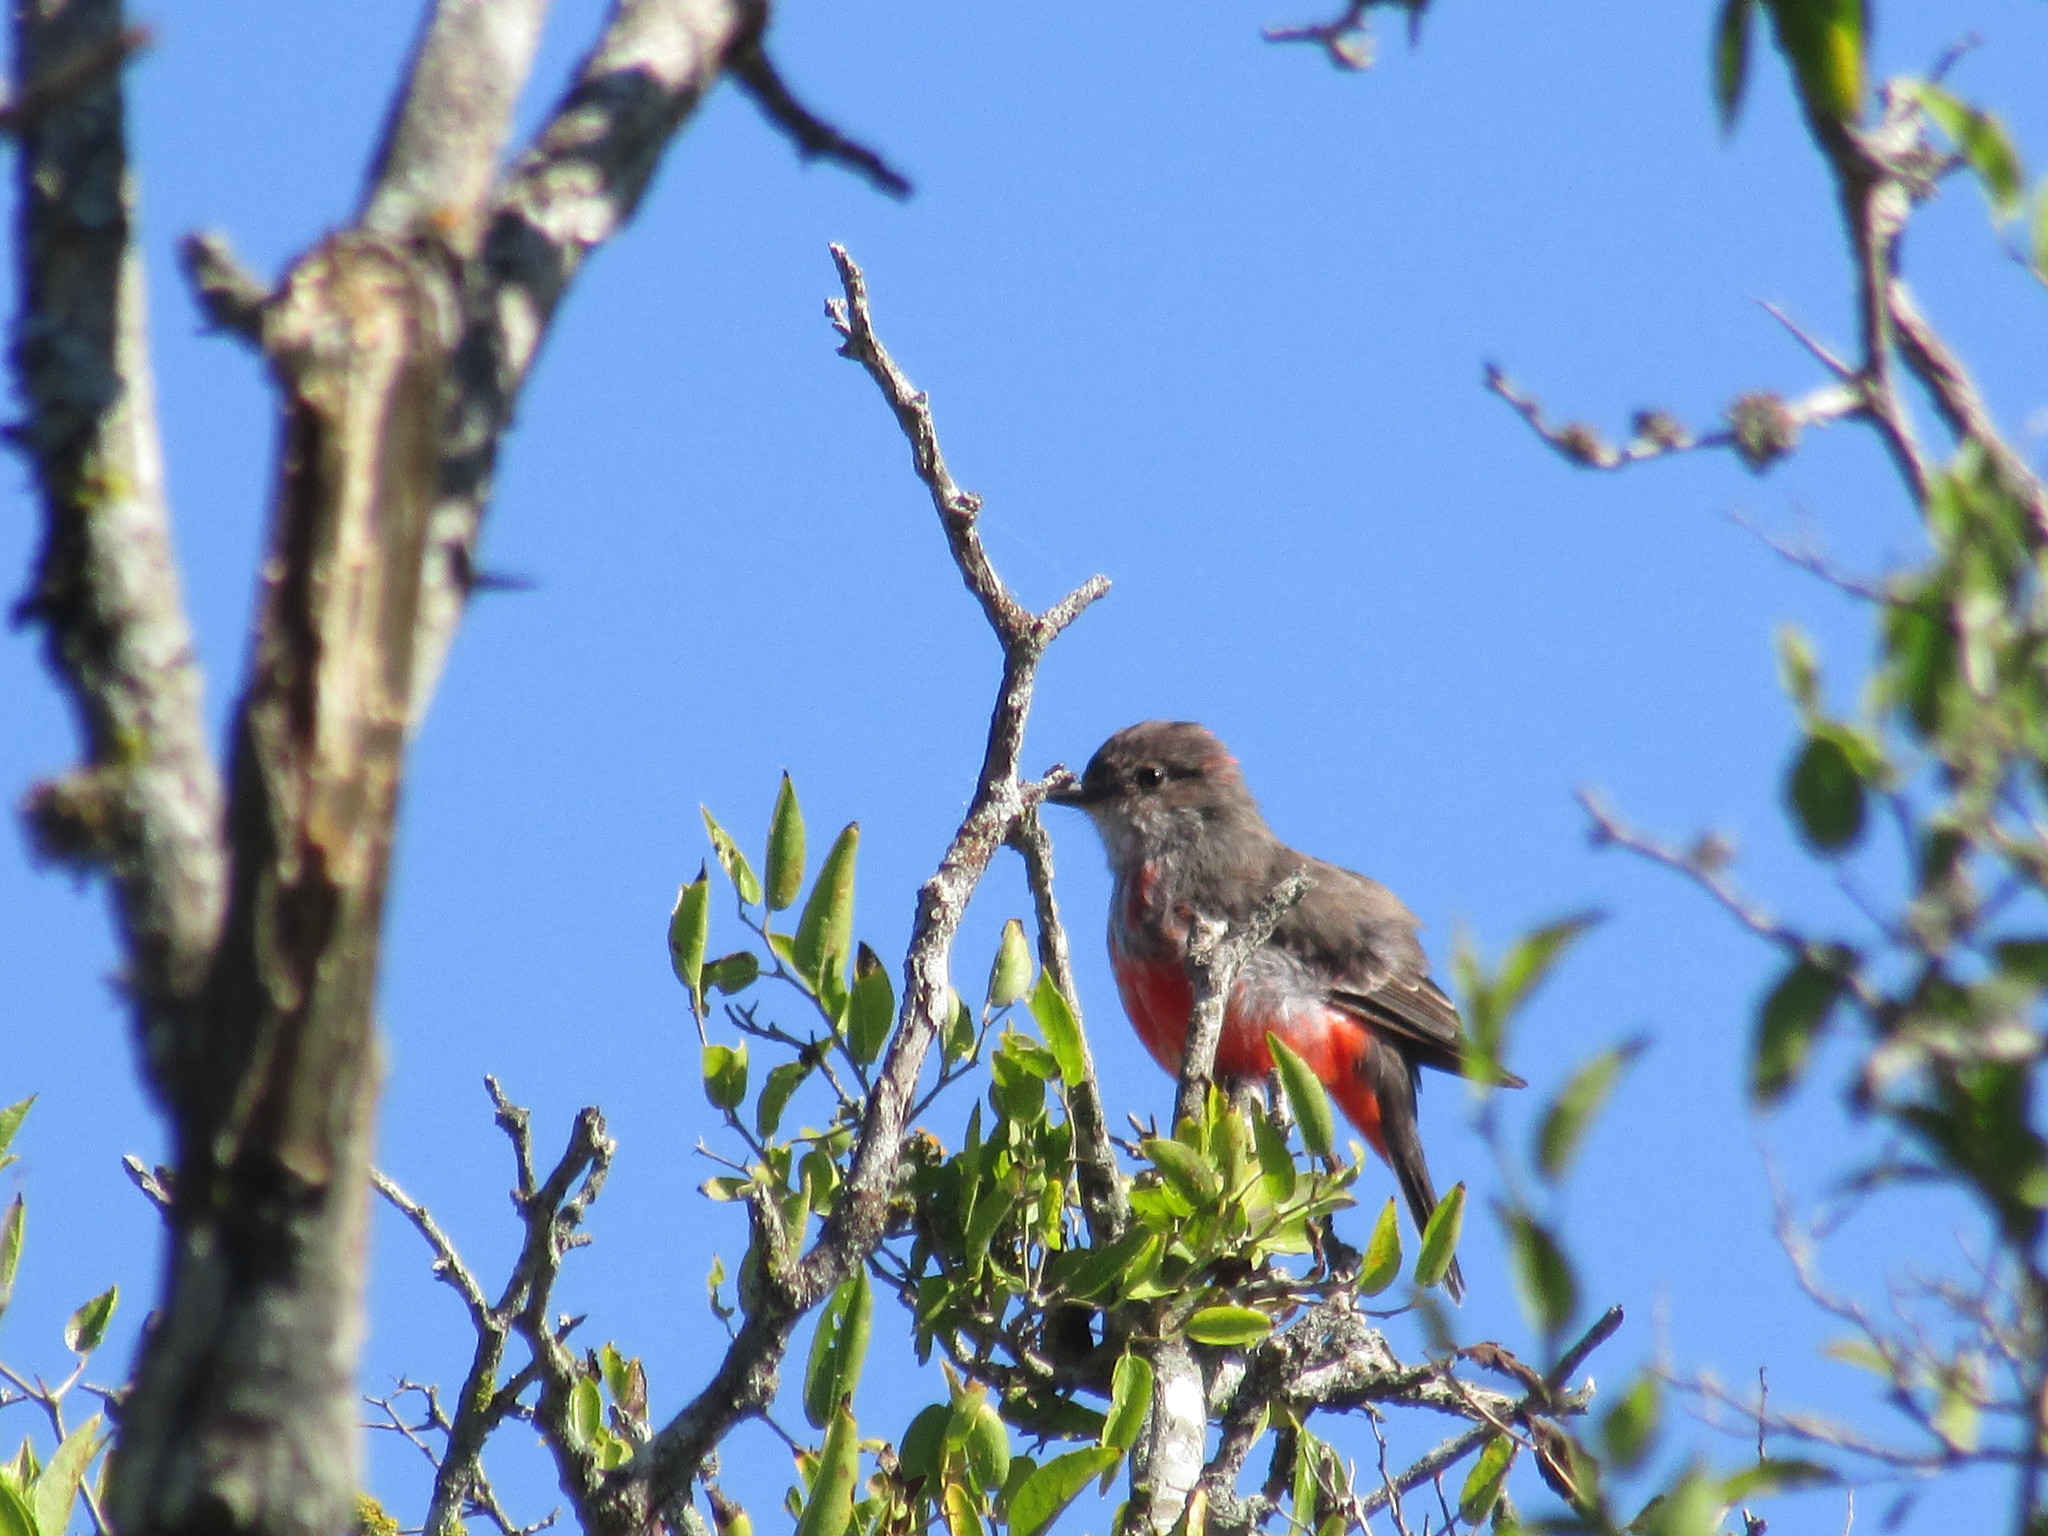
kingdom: Animalia
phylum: Chordata
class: Aves
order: Passeriformes
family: Tyrannidae
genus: Pyrocephalus
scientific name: Pyrocephalus rubinus
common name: Vermilion flycatcher
